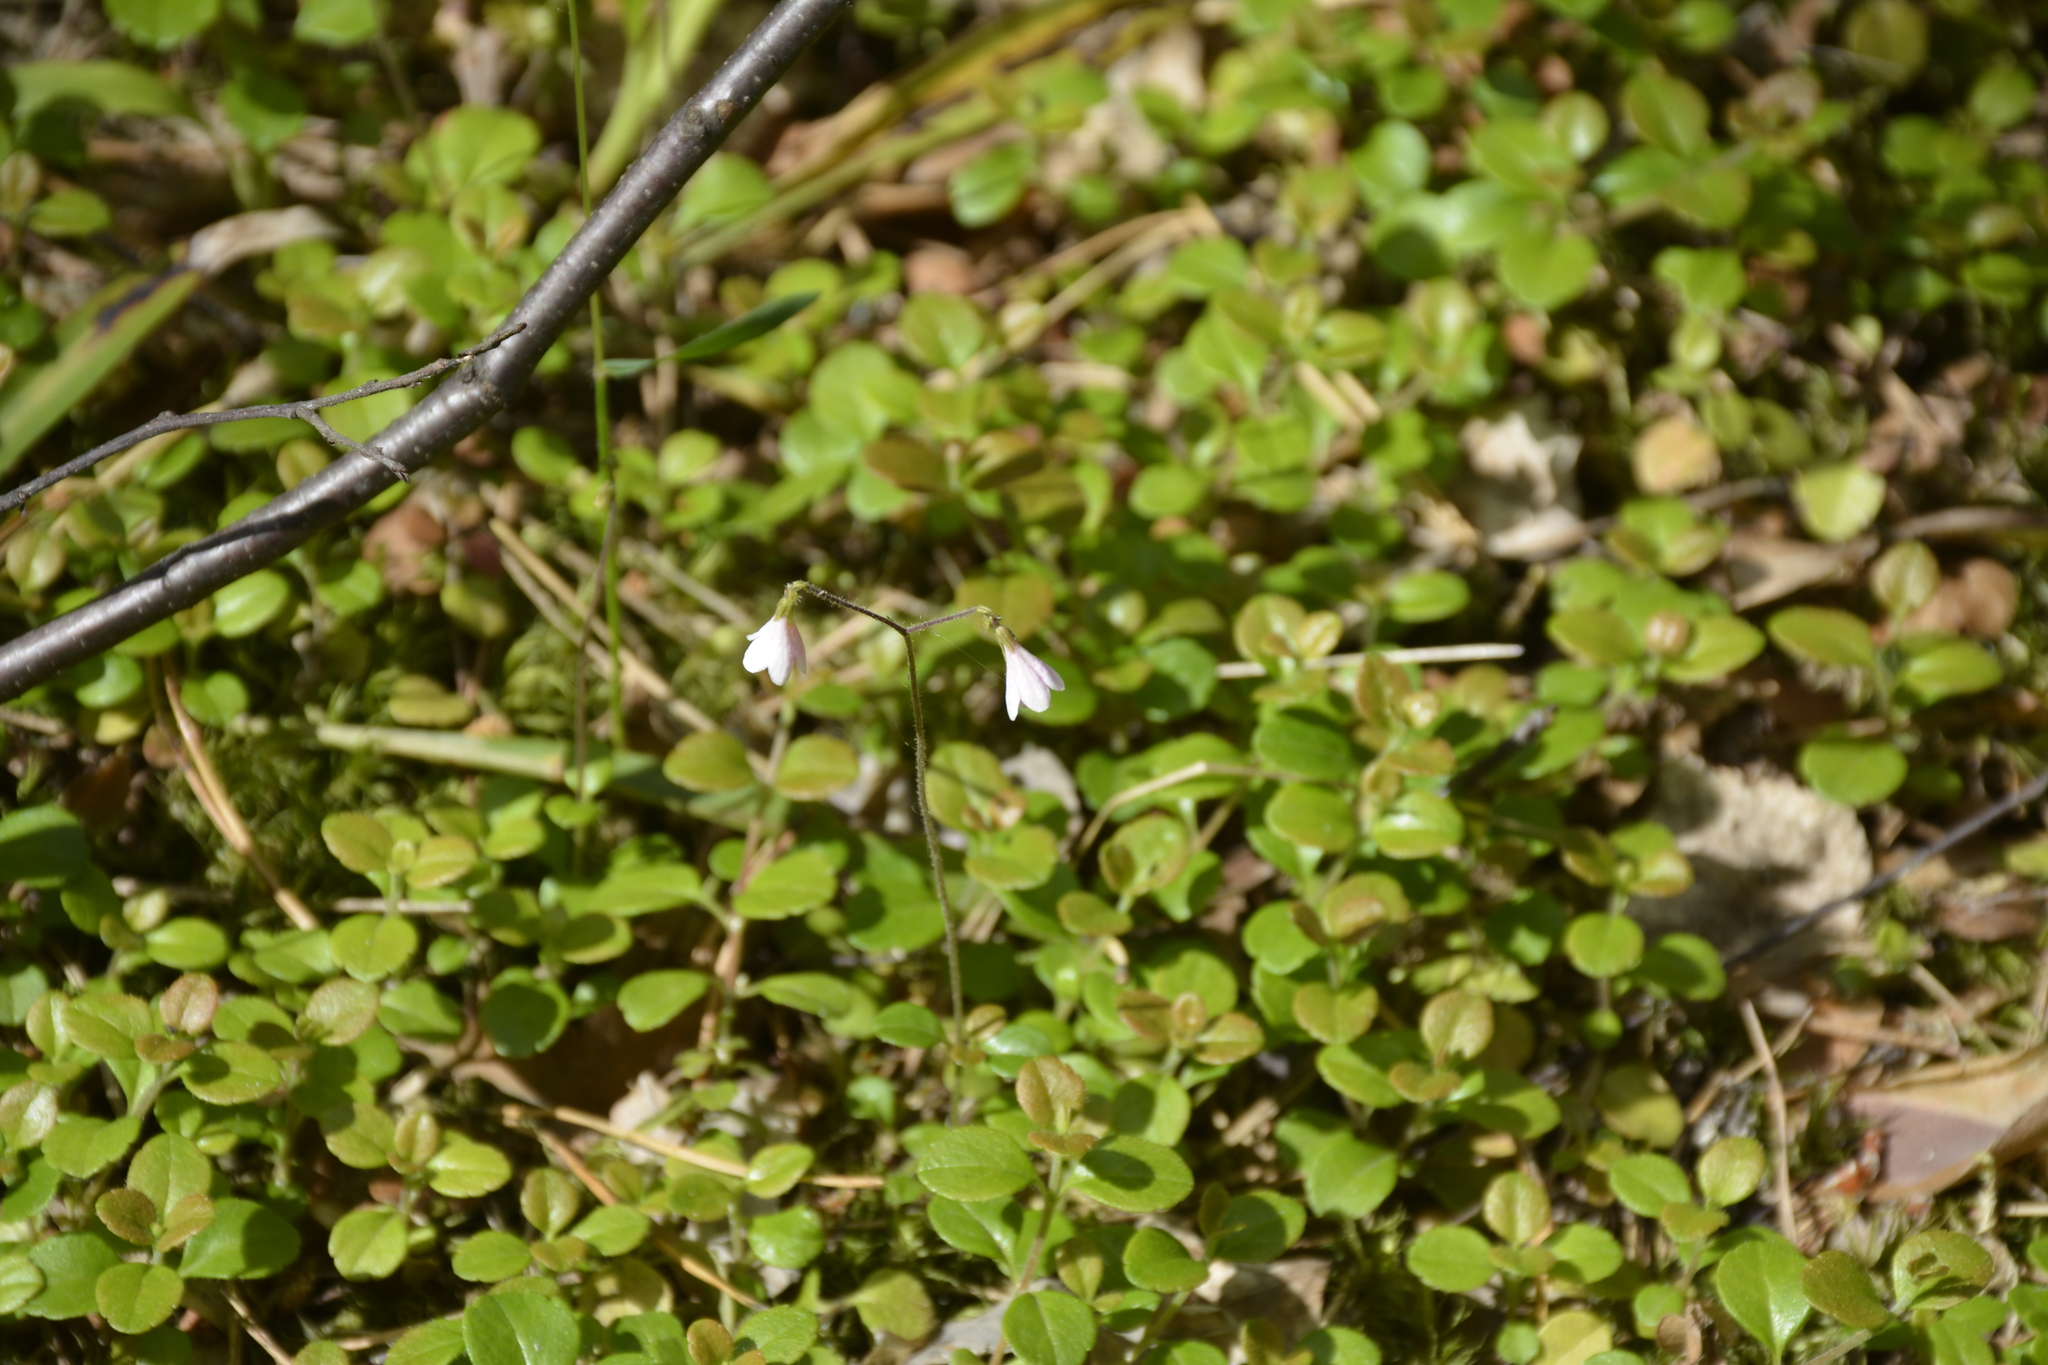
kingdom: Plantae
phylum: Tracheophyta
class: Magnoliopsida
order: Dipsacales
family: Caprifoliaceae
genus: Linnaea
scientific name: Linnaea borealis
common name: Twinflower
